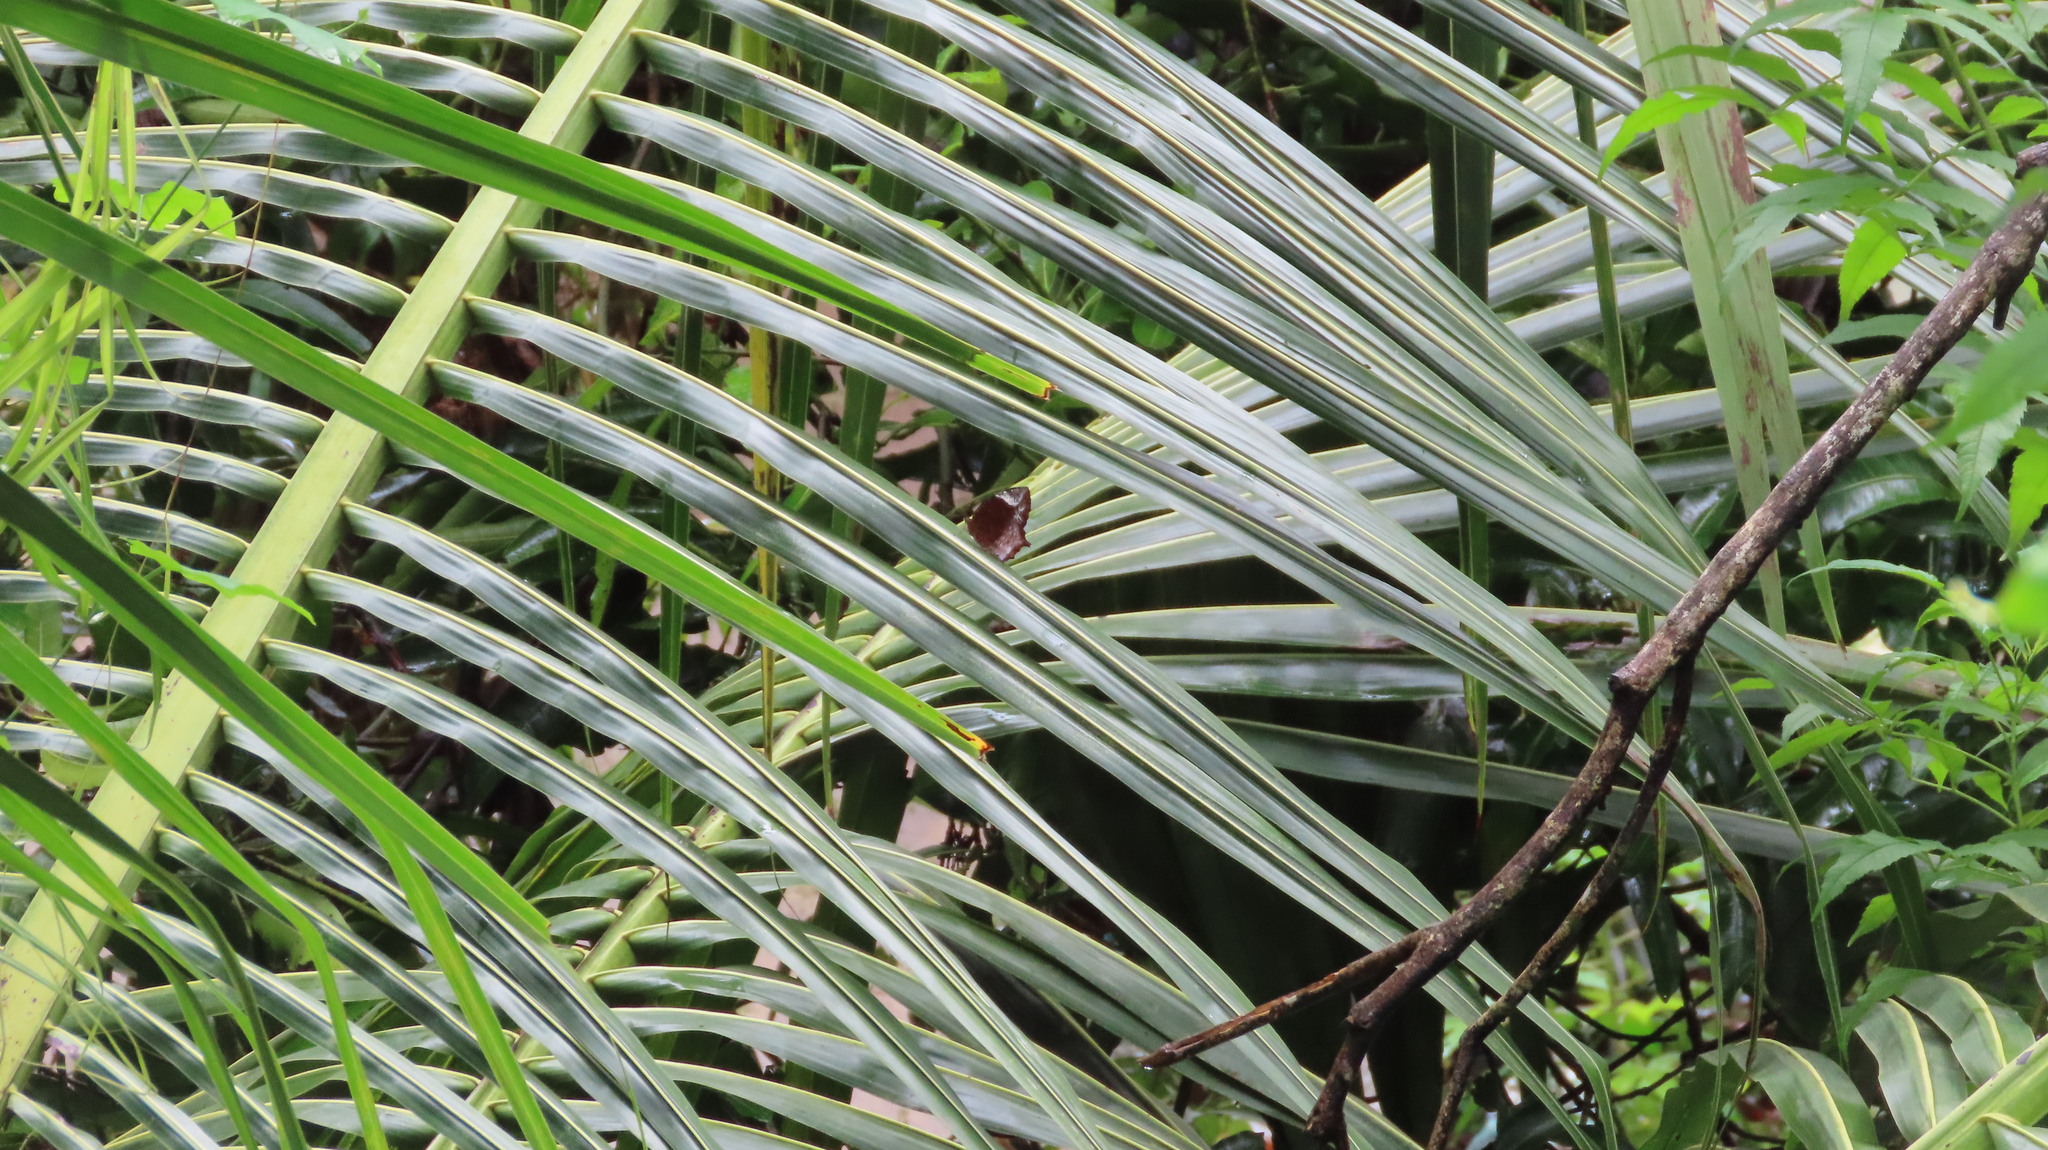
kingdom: Animalia
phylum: Arthropoda
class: Insecta
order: Lepidoptera
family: Nymphalidae
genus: Elymnias
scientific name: Elymnias caudata
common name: Tailed palmfly
